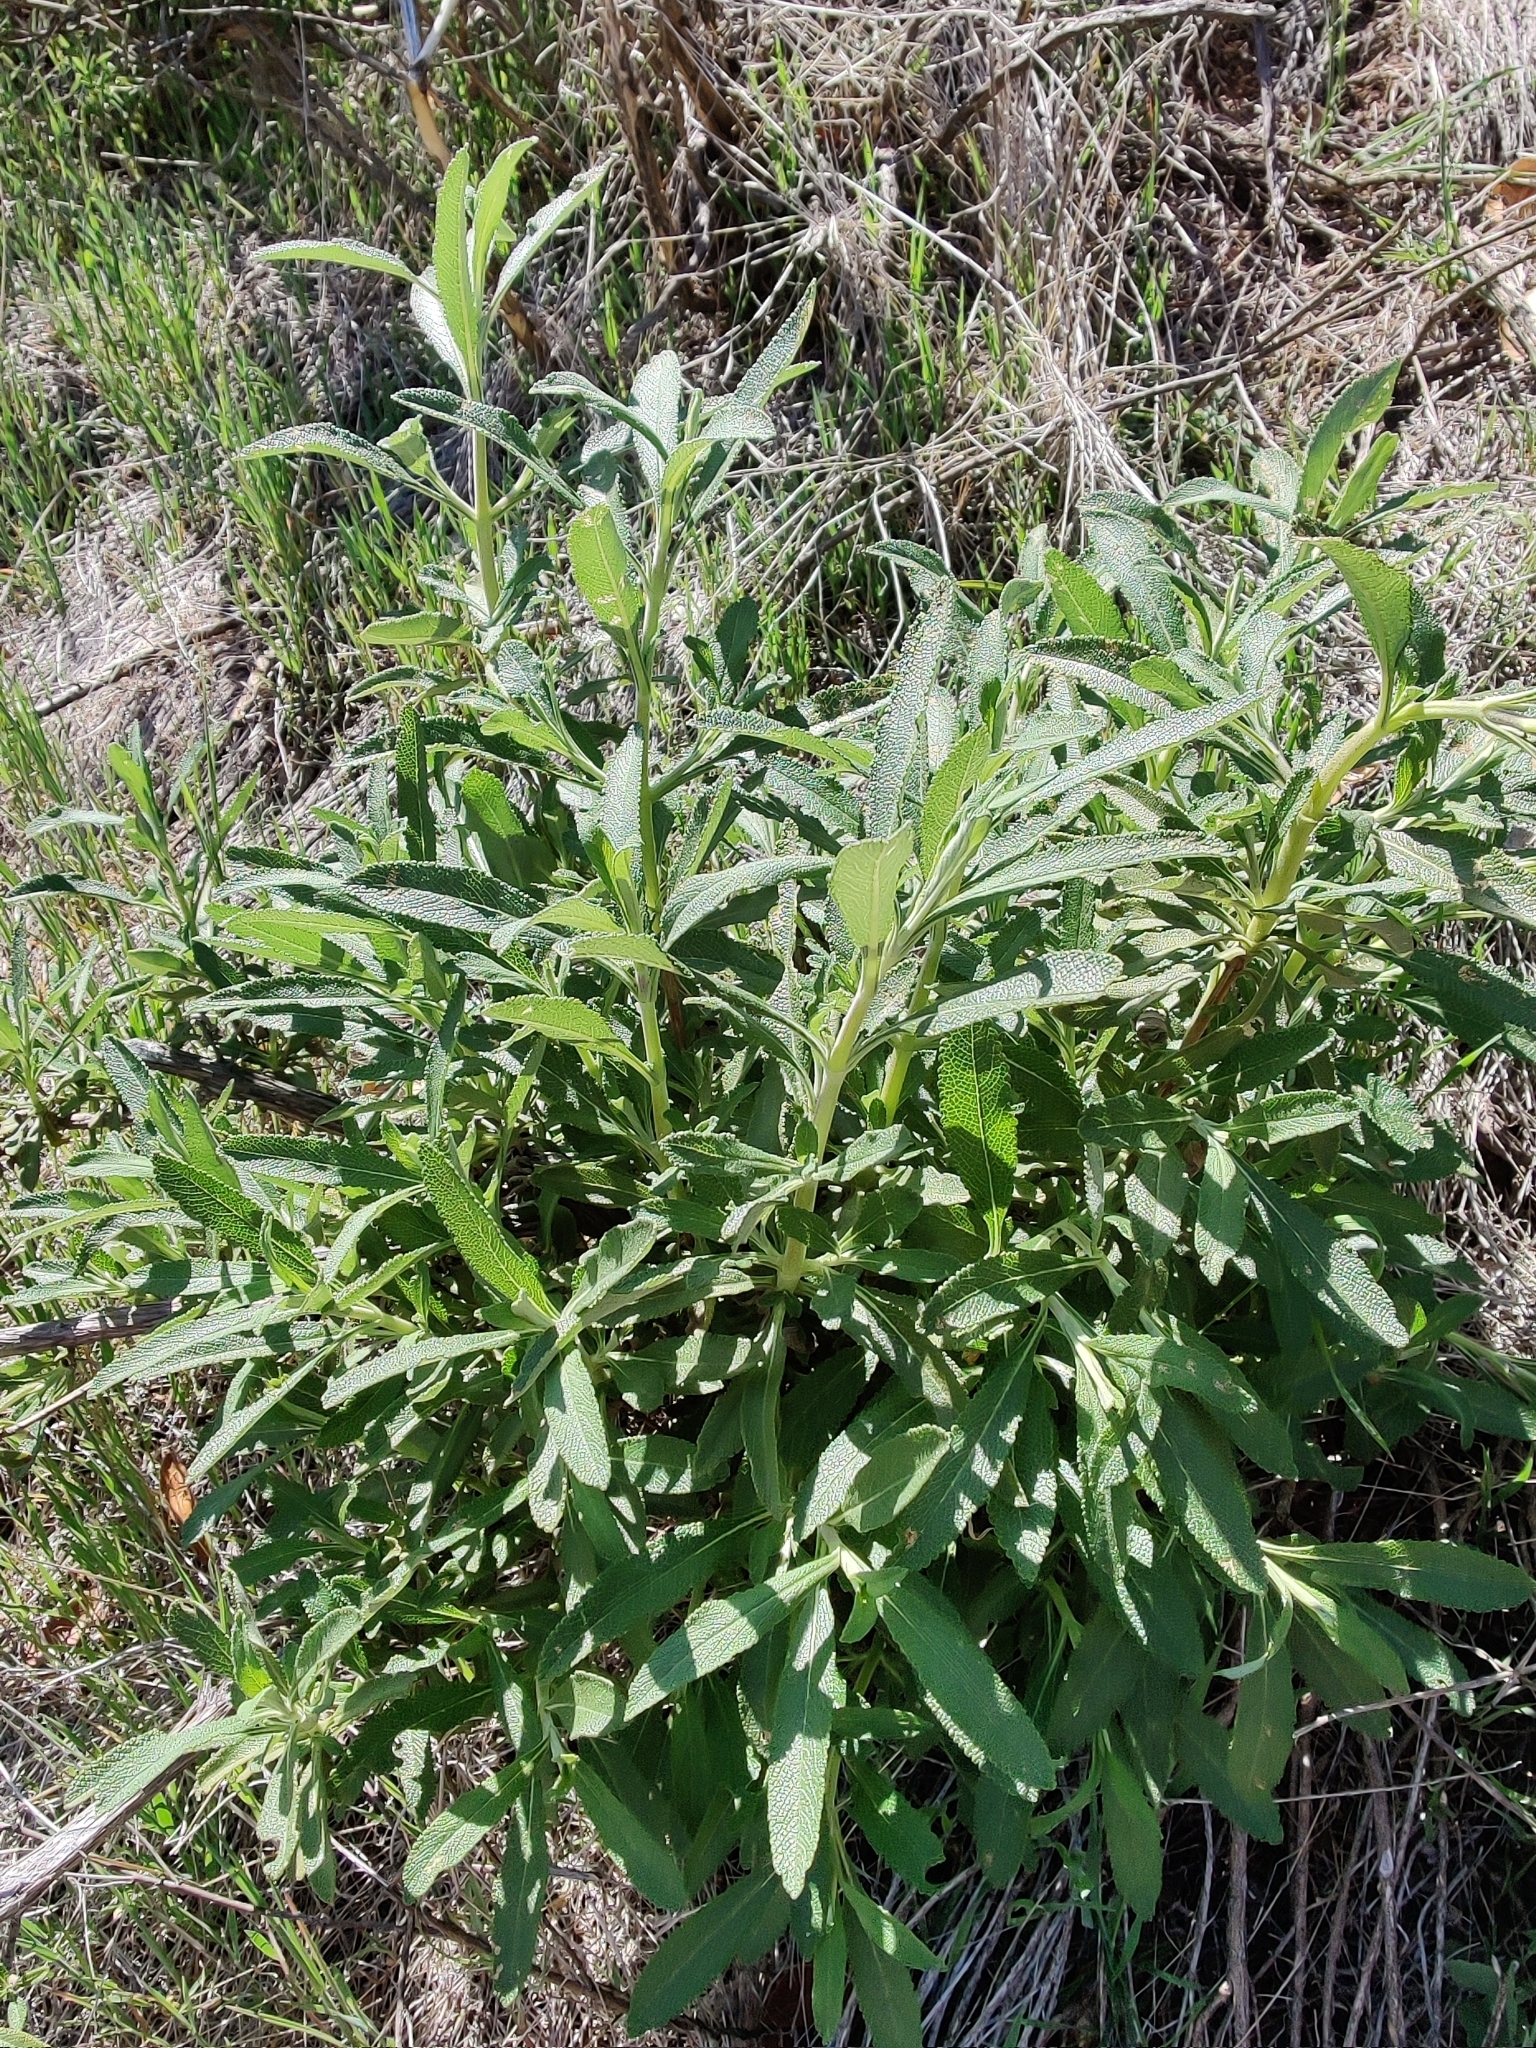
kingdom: Plantae
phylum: Tracheophyta
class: Magnoliopsida
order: Lamiales
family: Lamiaceae
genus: Salvia
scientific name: Salvia mellifera
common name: Black sage
